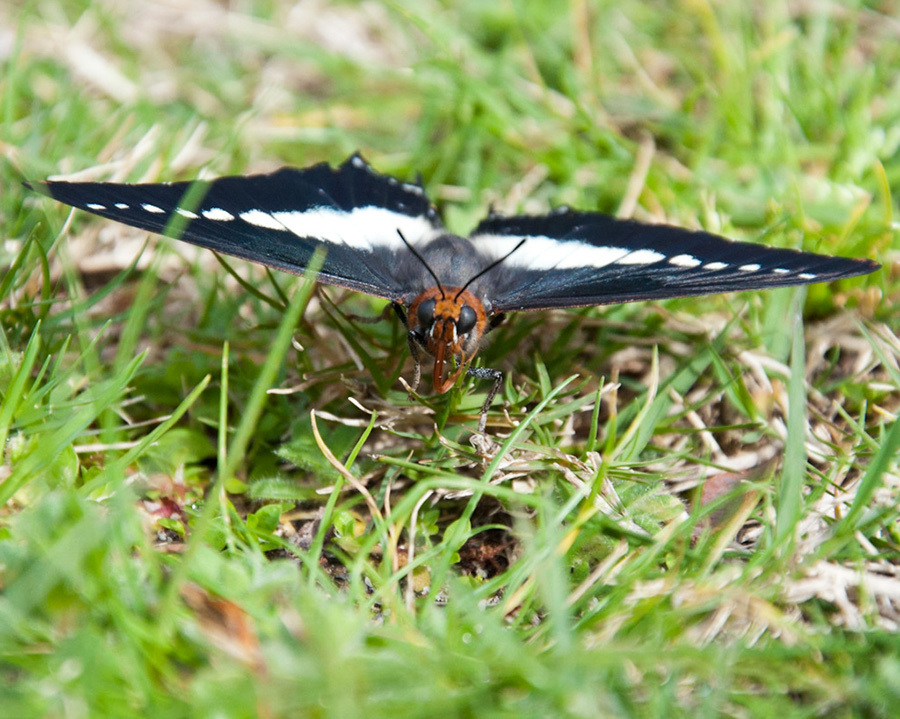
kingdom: Animalia
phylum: Arthropoda
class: Insecta
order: Lepidoptera
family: Nymphalidae
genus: Charaxes
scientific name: Charaxes brutus
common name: White-barred charaxes
